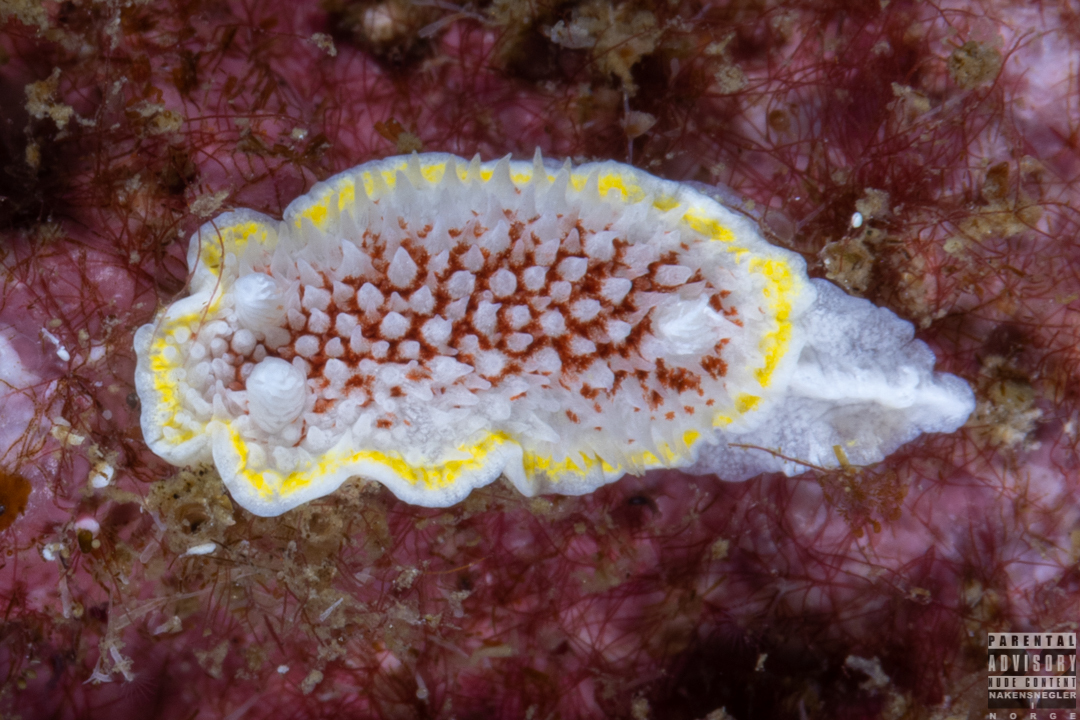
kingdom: Animalia
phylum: Mollusca
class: Gastropoda
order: Nudibranchia
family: Calycidorididae
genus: Diaphorodoris
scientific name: Diaphorodoris luteocincta
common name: Fried egg nudibranch
